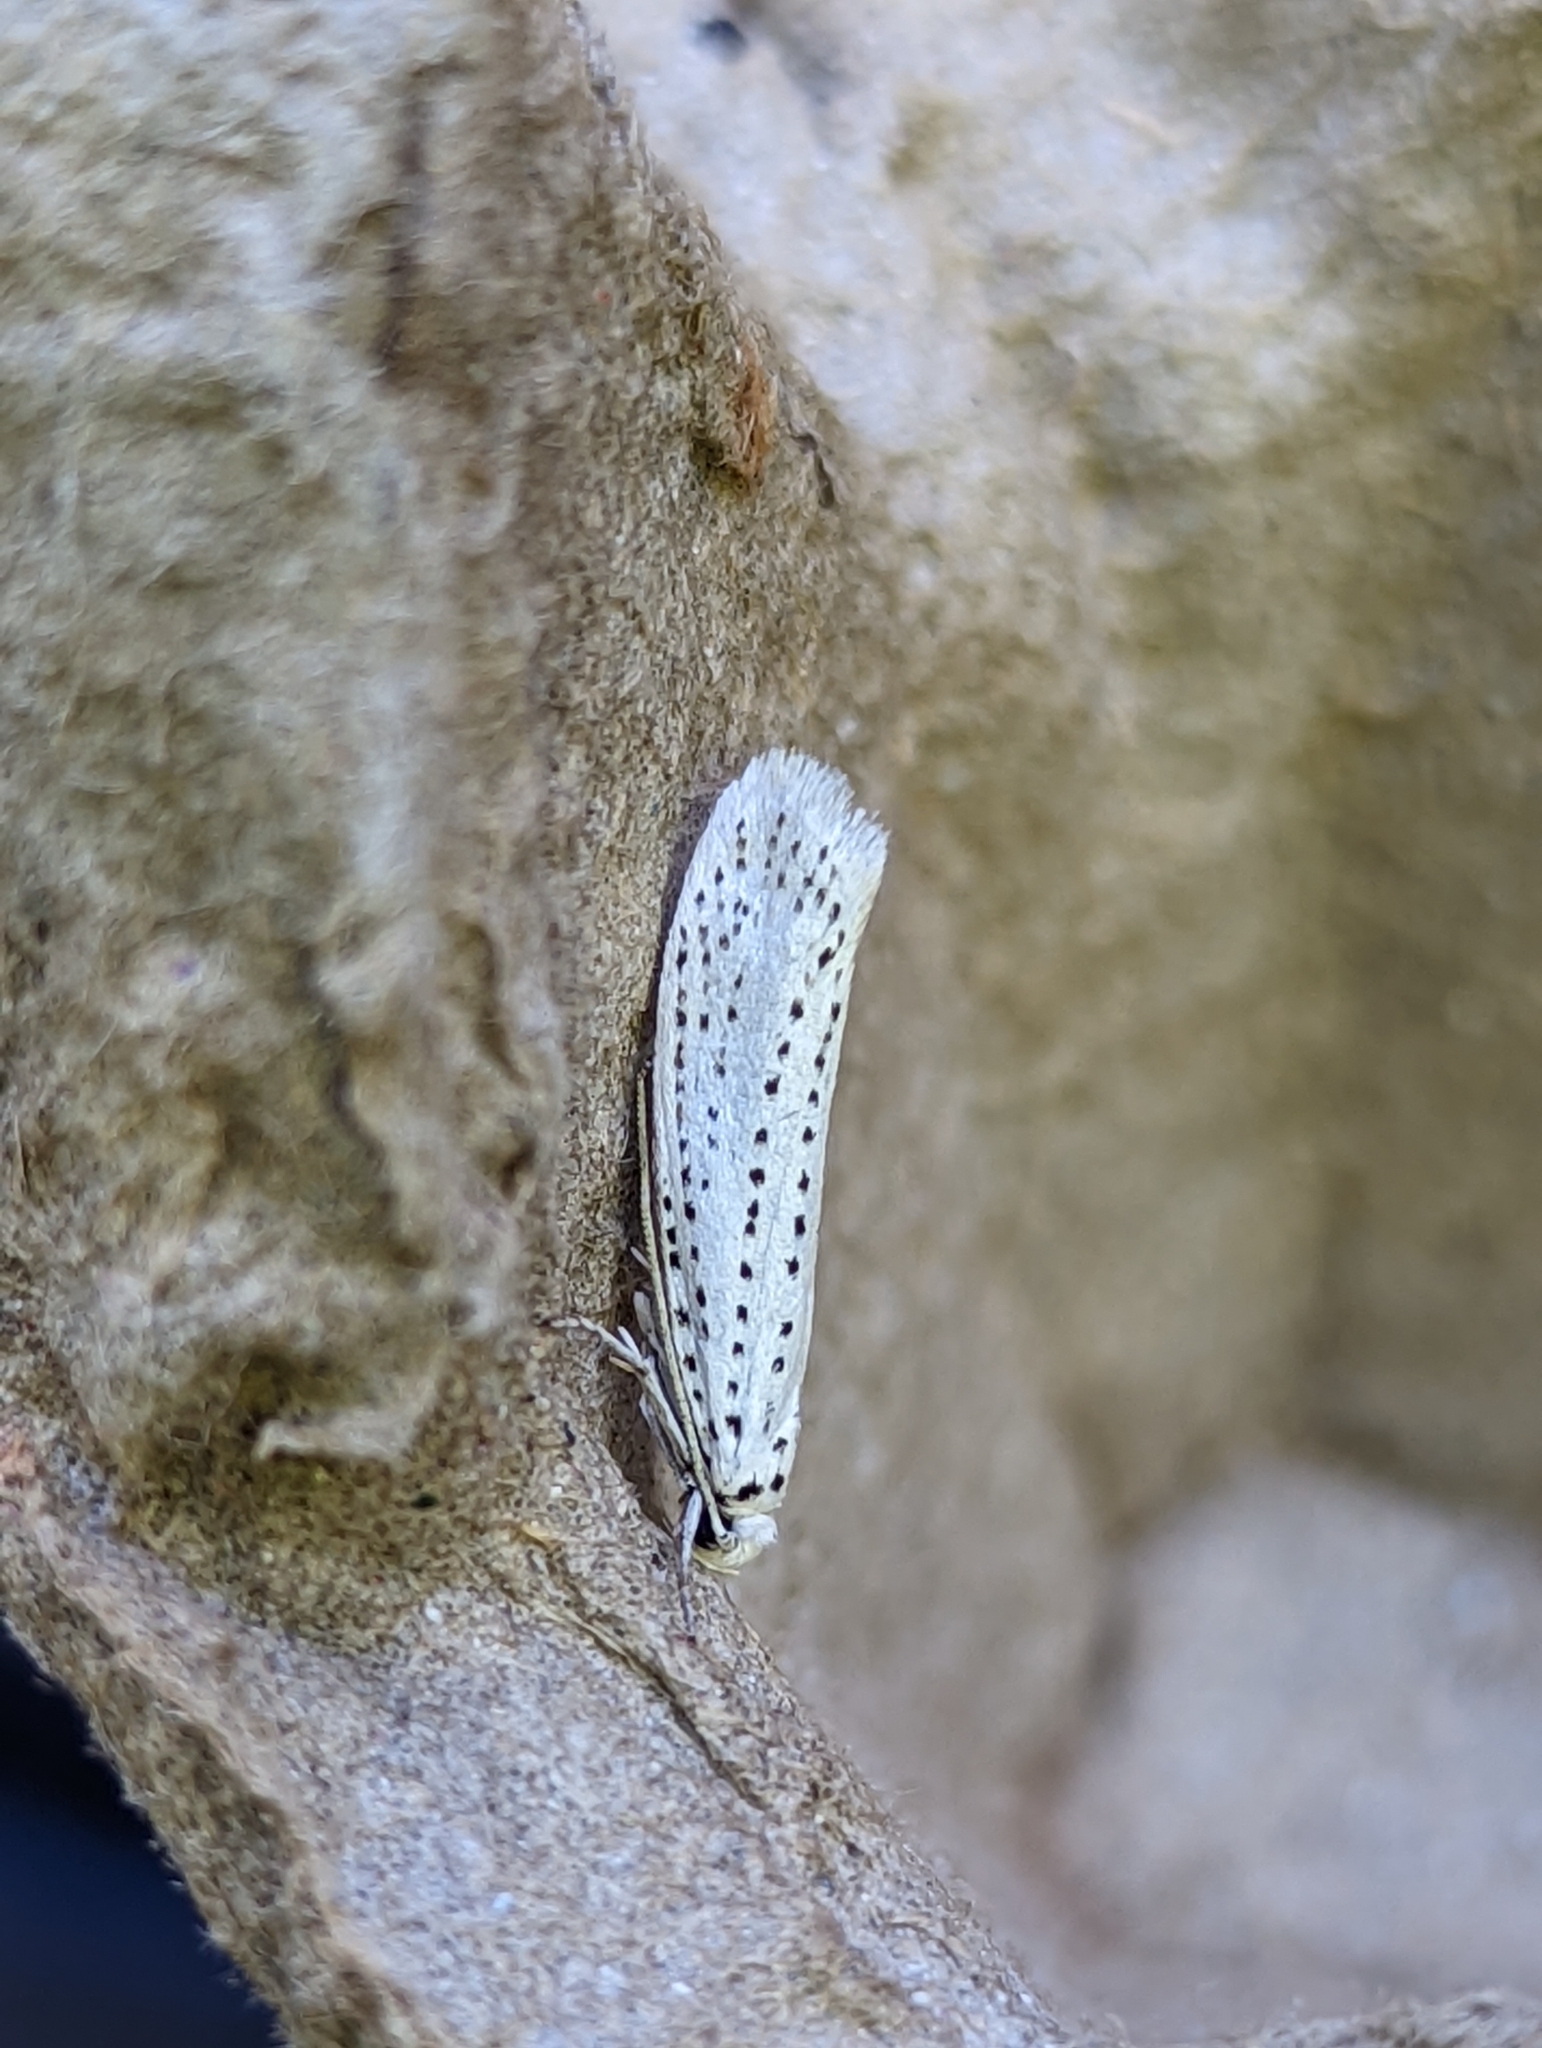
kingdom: Animalia
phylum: Arthropoda
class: Insecta
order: Lepidoptera
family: Yponomeutidae
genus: Yponomeuta
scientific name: Yponomeuta evonymella
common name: Bird-cherry ermine
